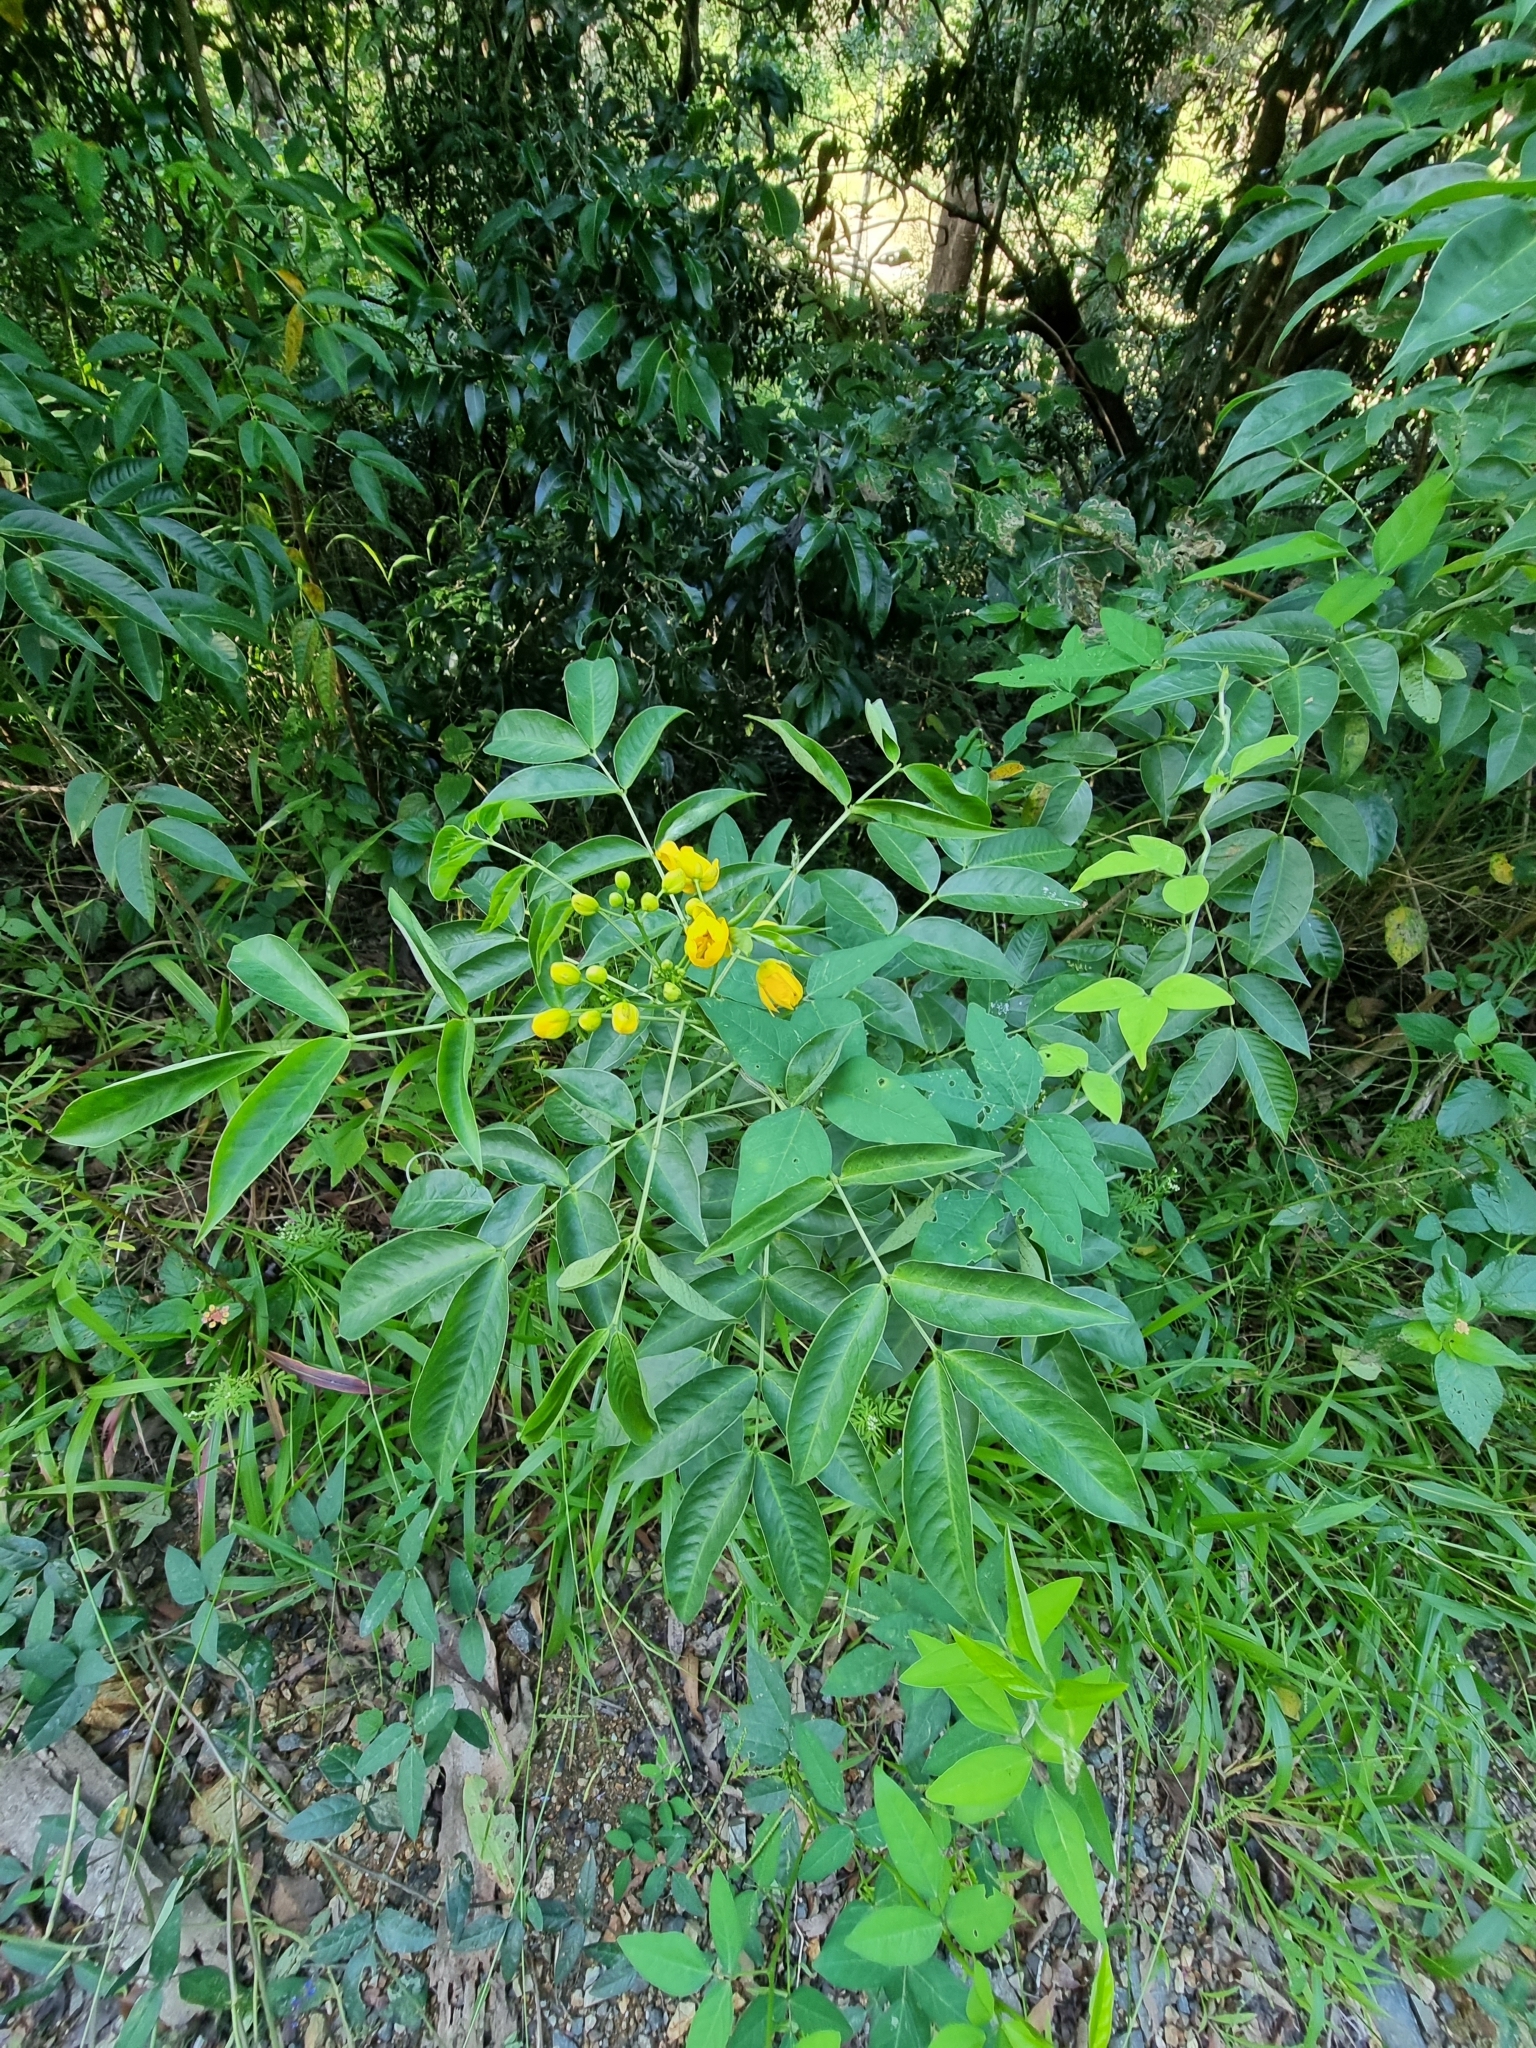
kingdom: Plantae
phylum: Tracheophyta
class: Magnoliopsida
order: Fabales
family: Fabaceae
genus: Senna
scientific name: Senna septemtrionalis
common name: Arsenic bush
